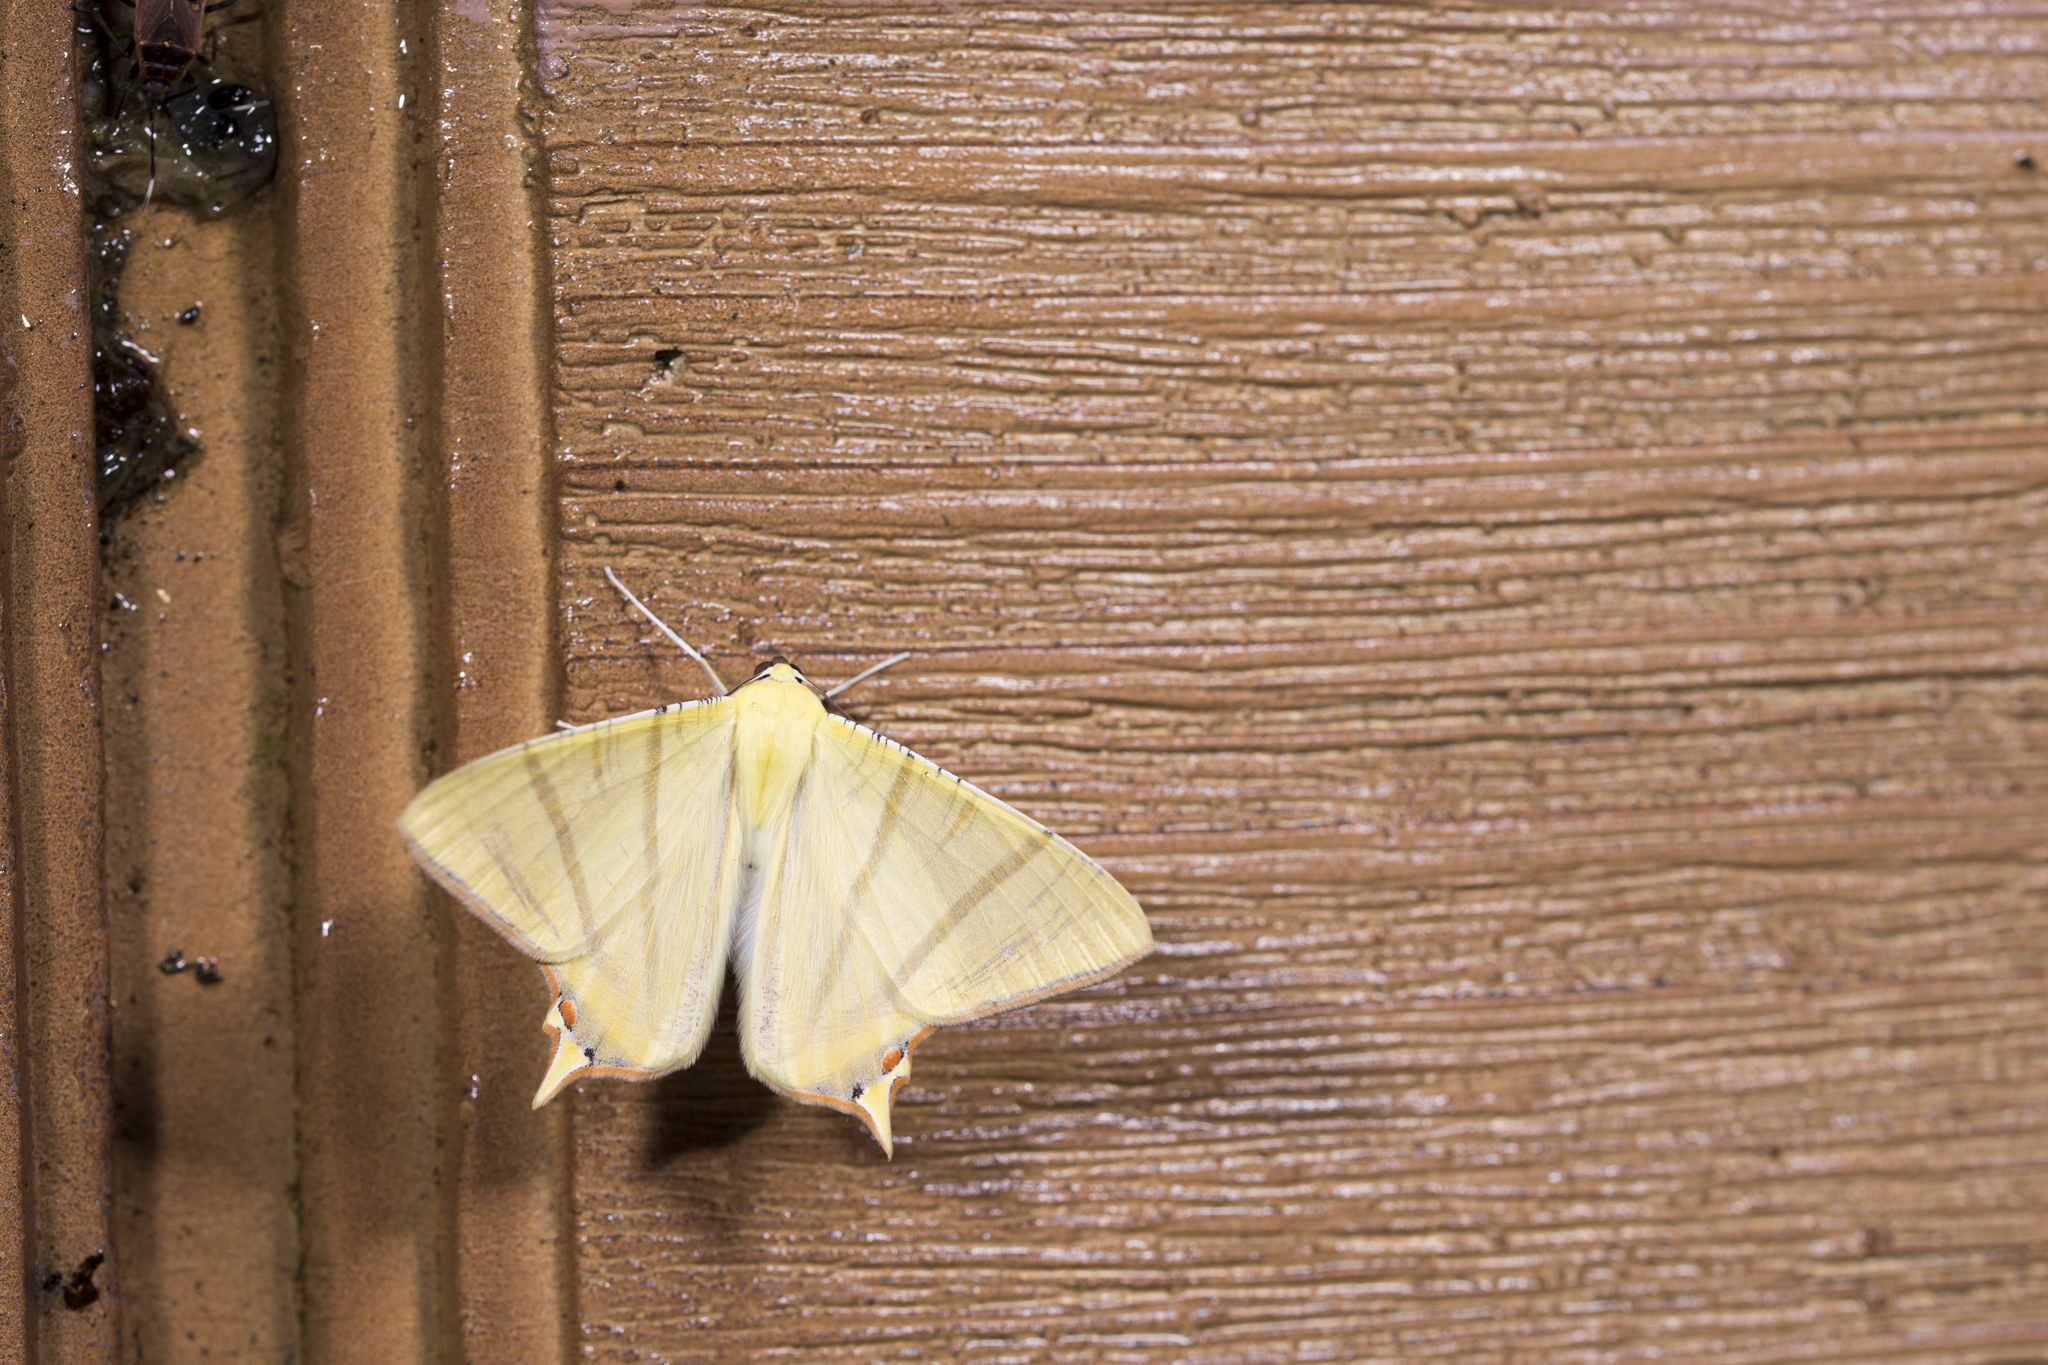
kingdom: Animalia
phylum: Arthropoda
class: Insecta
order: Lepidoptera
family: Geometridae
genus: Ourapteryx
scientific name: Ourapteryx sciticaudaria
